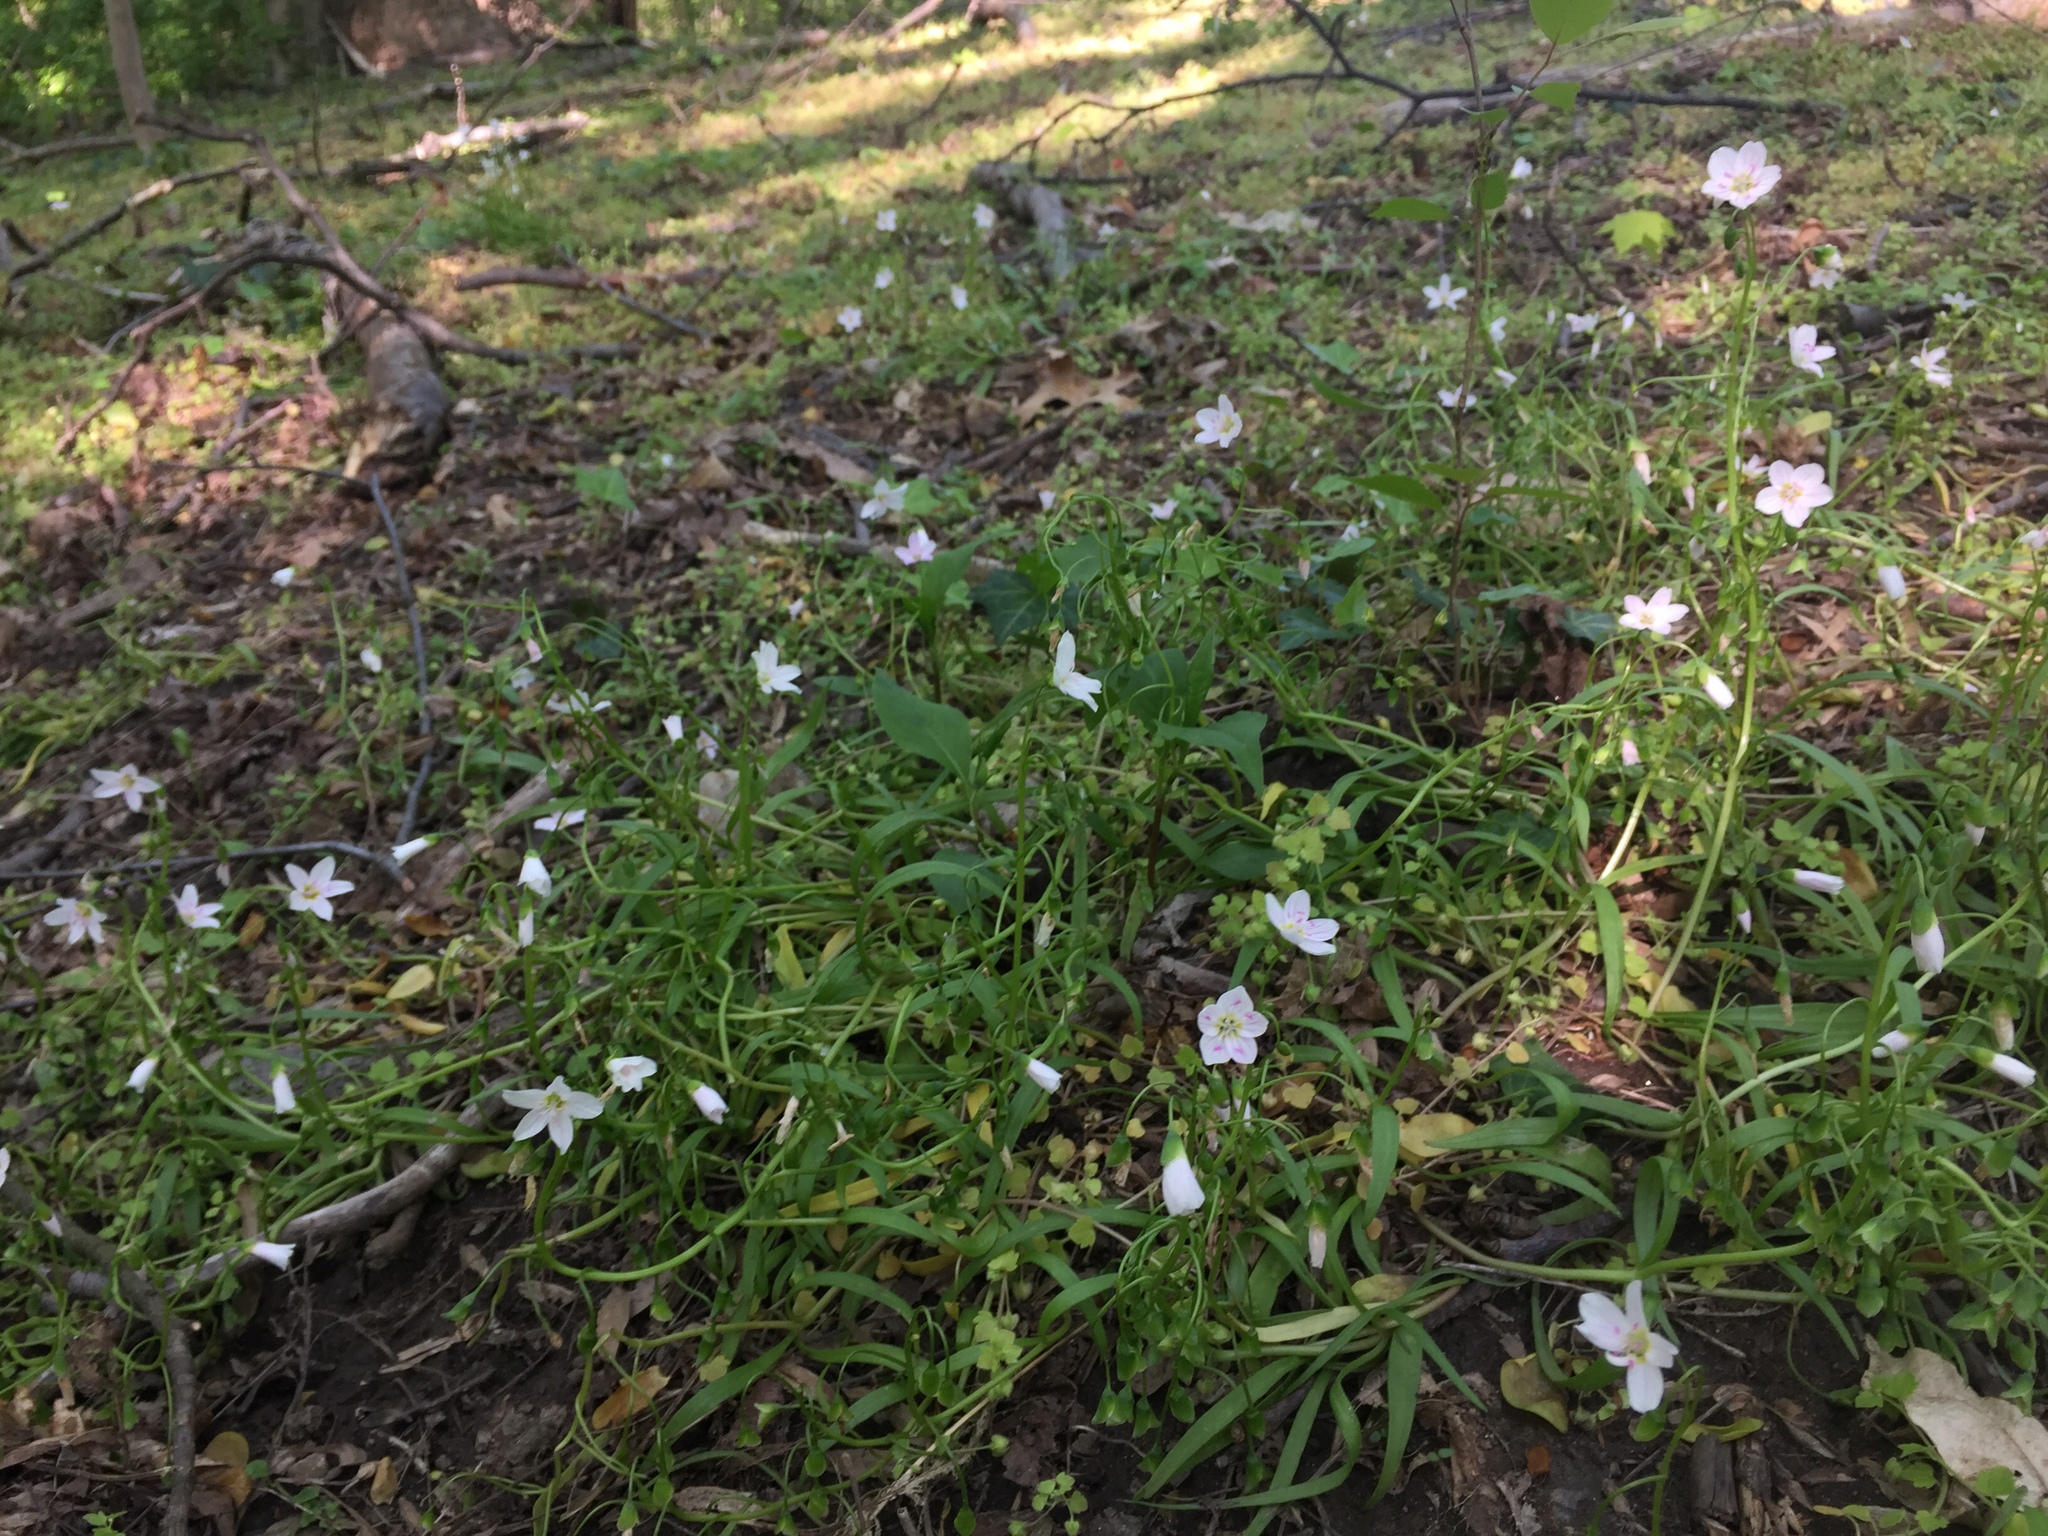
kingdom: Plantae
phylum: Tracheophyta
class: Magnoliopsida
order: Caryophyllales
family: Montiaceae
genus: Claytonia
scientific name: Claytonia virginica
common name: Virginia springbeauty
